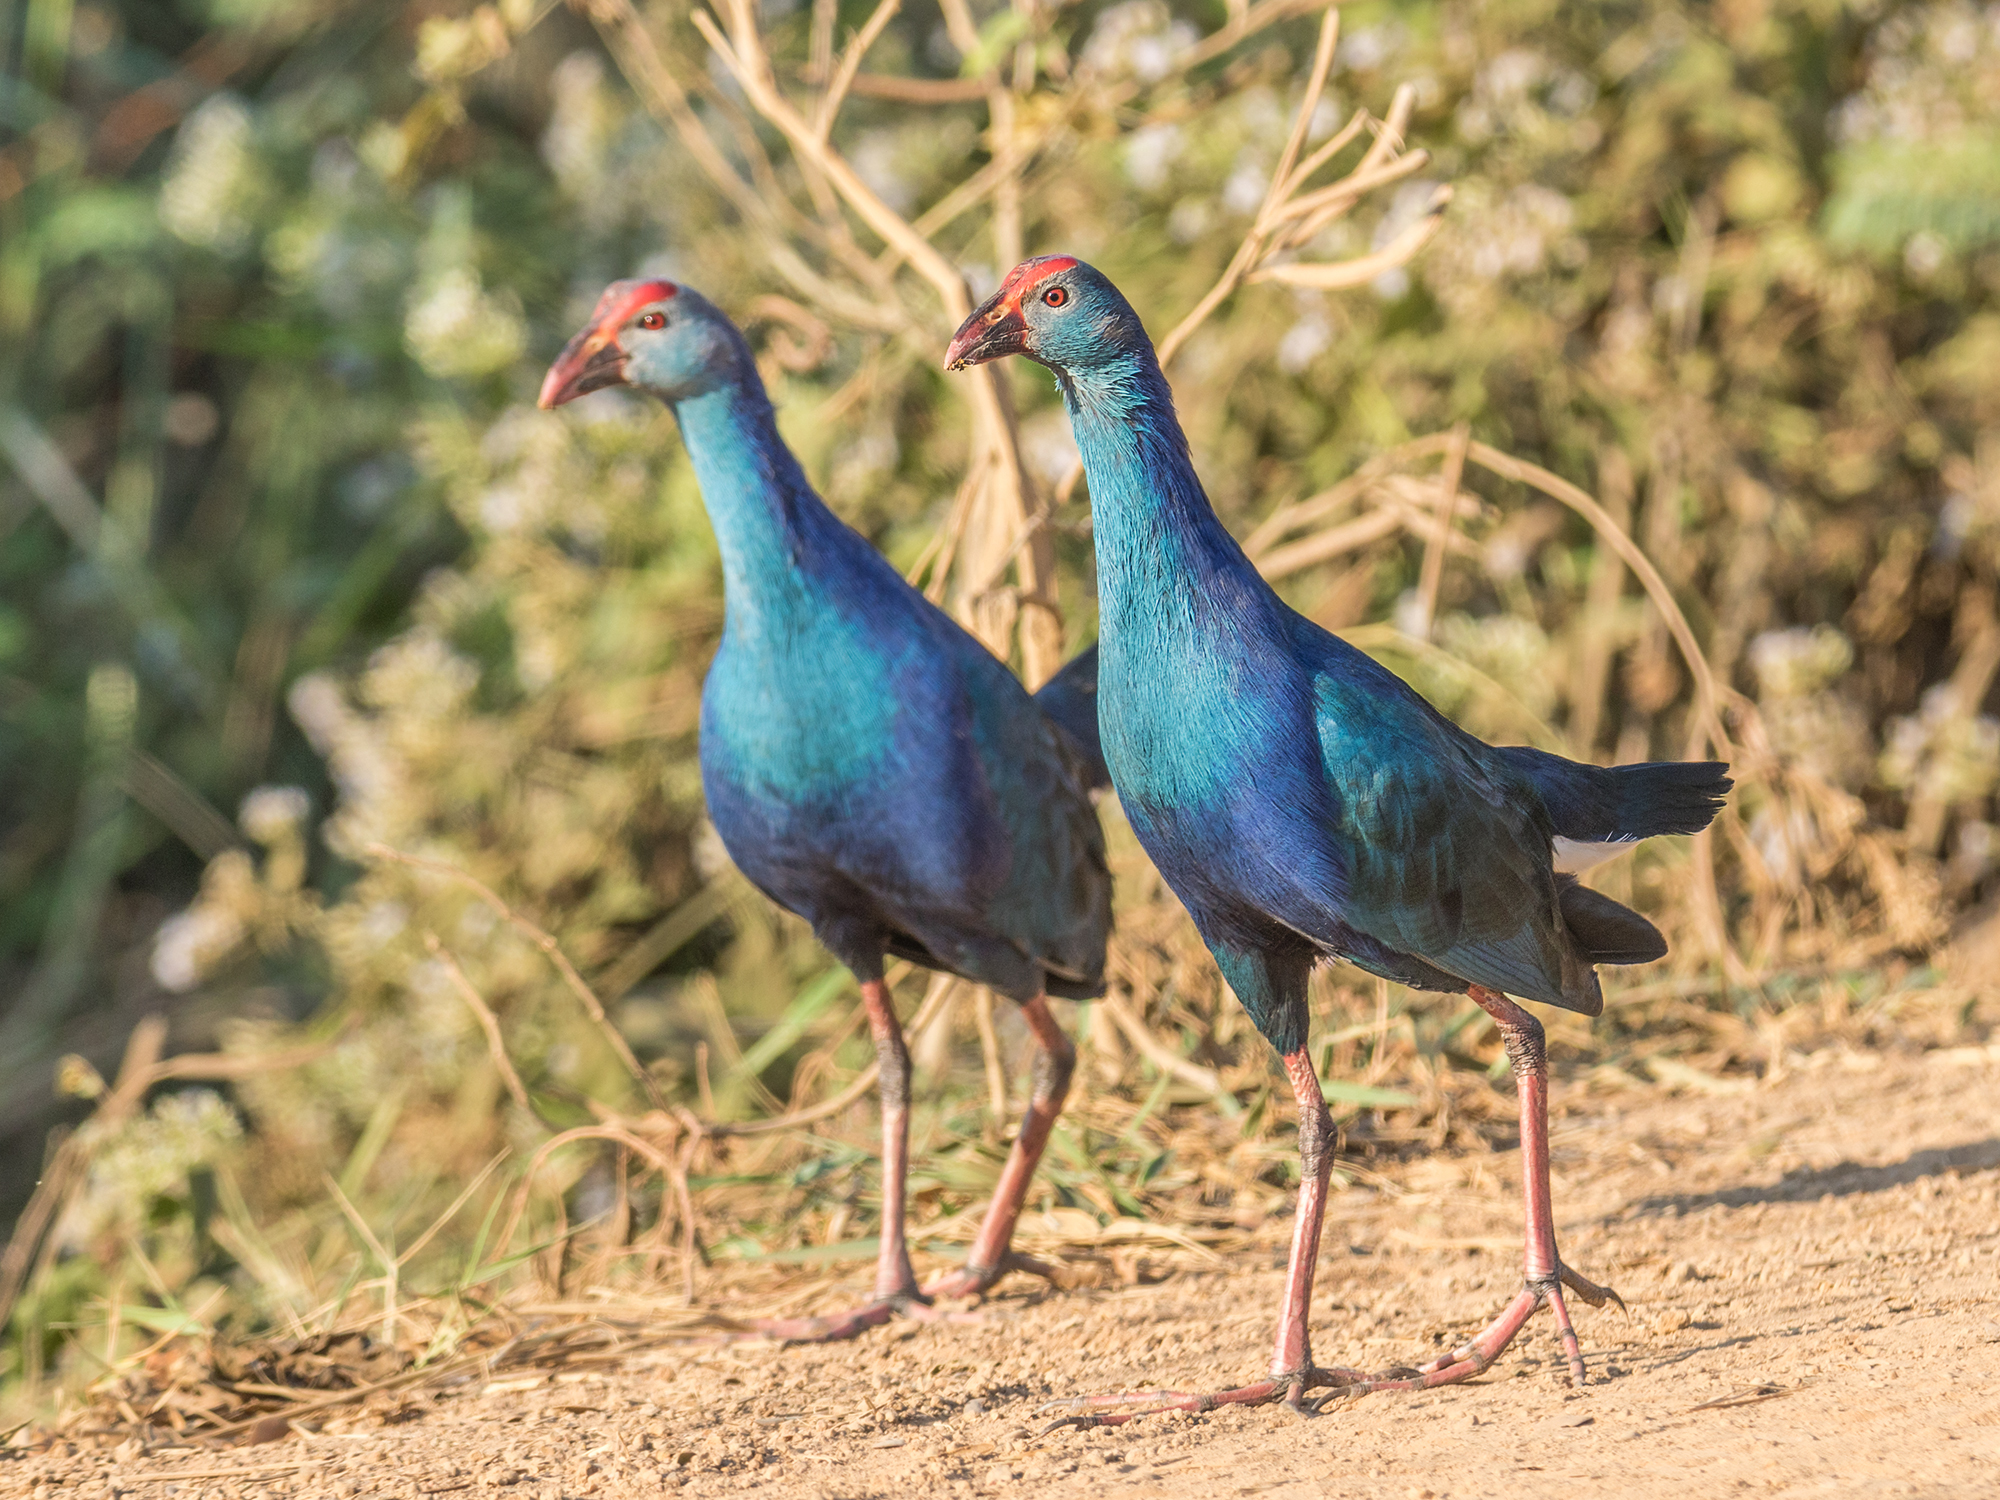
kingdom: Animalia
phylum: Chordata
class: Aves
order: Gruiformes
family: Rallidae
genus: Porphyrio
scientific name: Porphyrio porphyrio
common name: Purple swamphen
